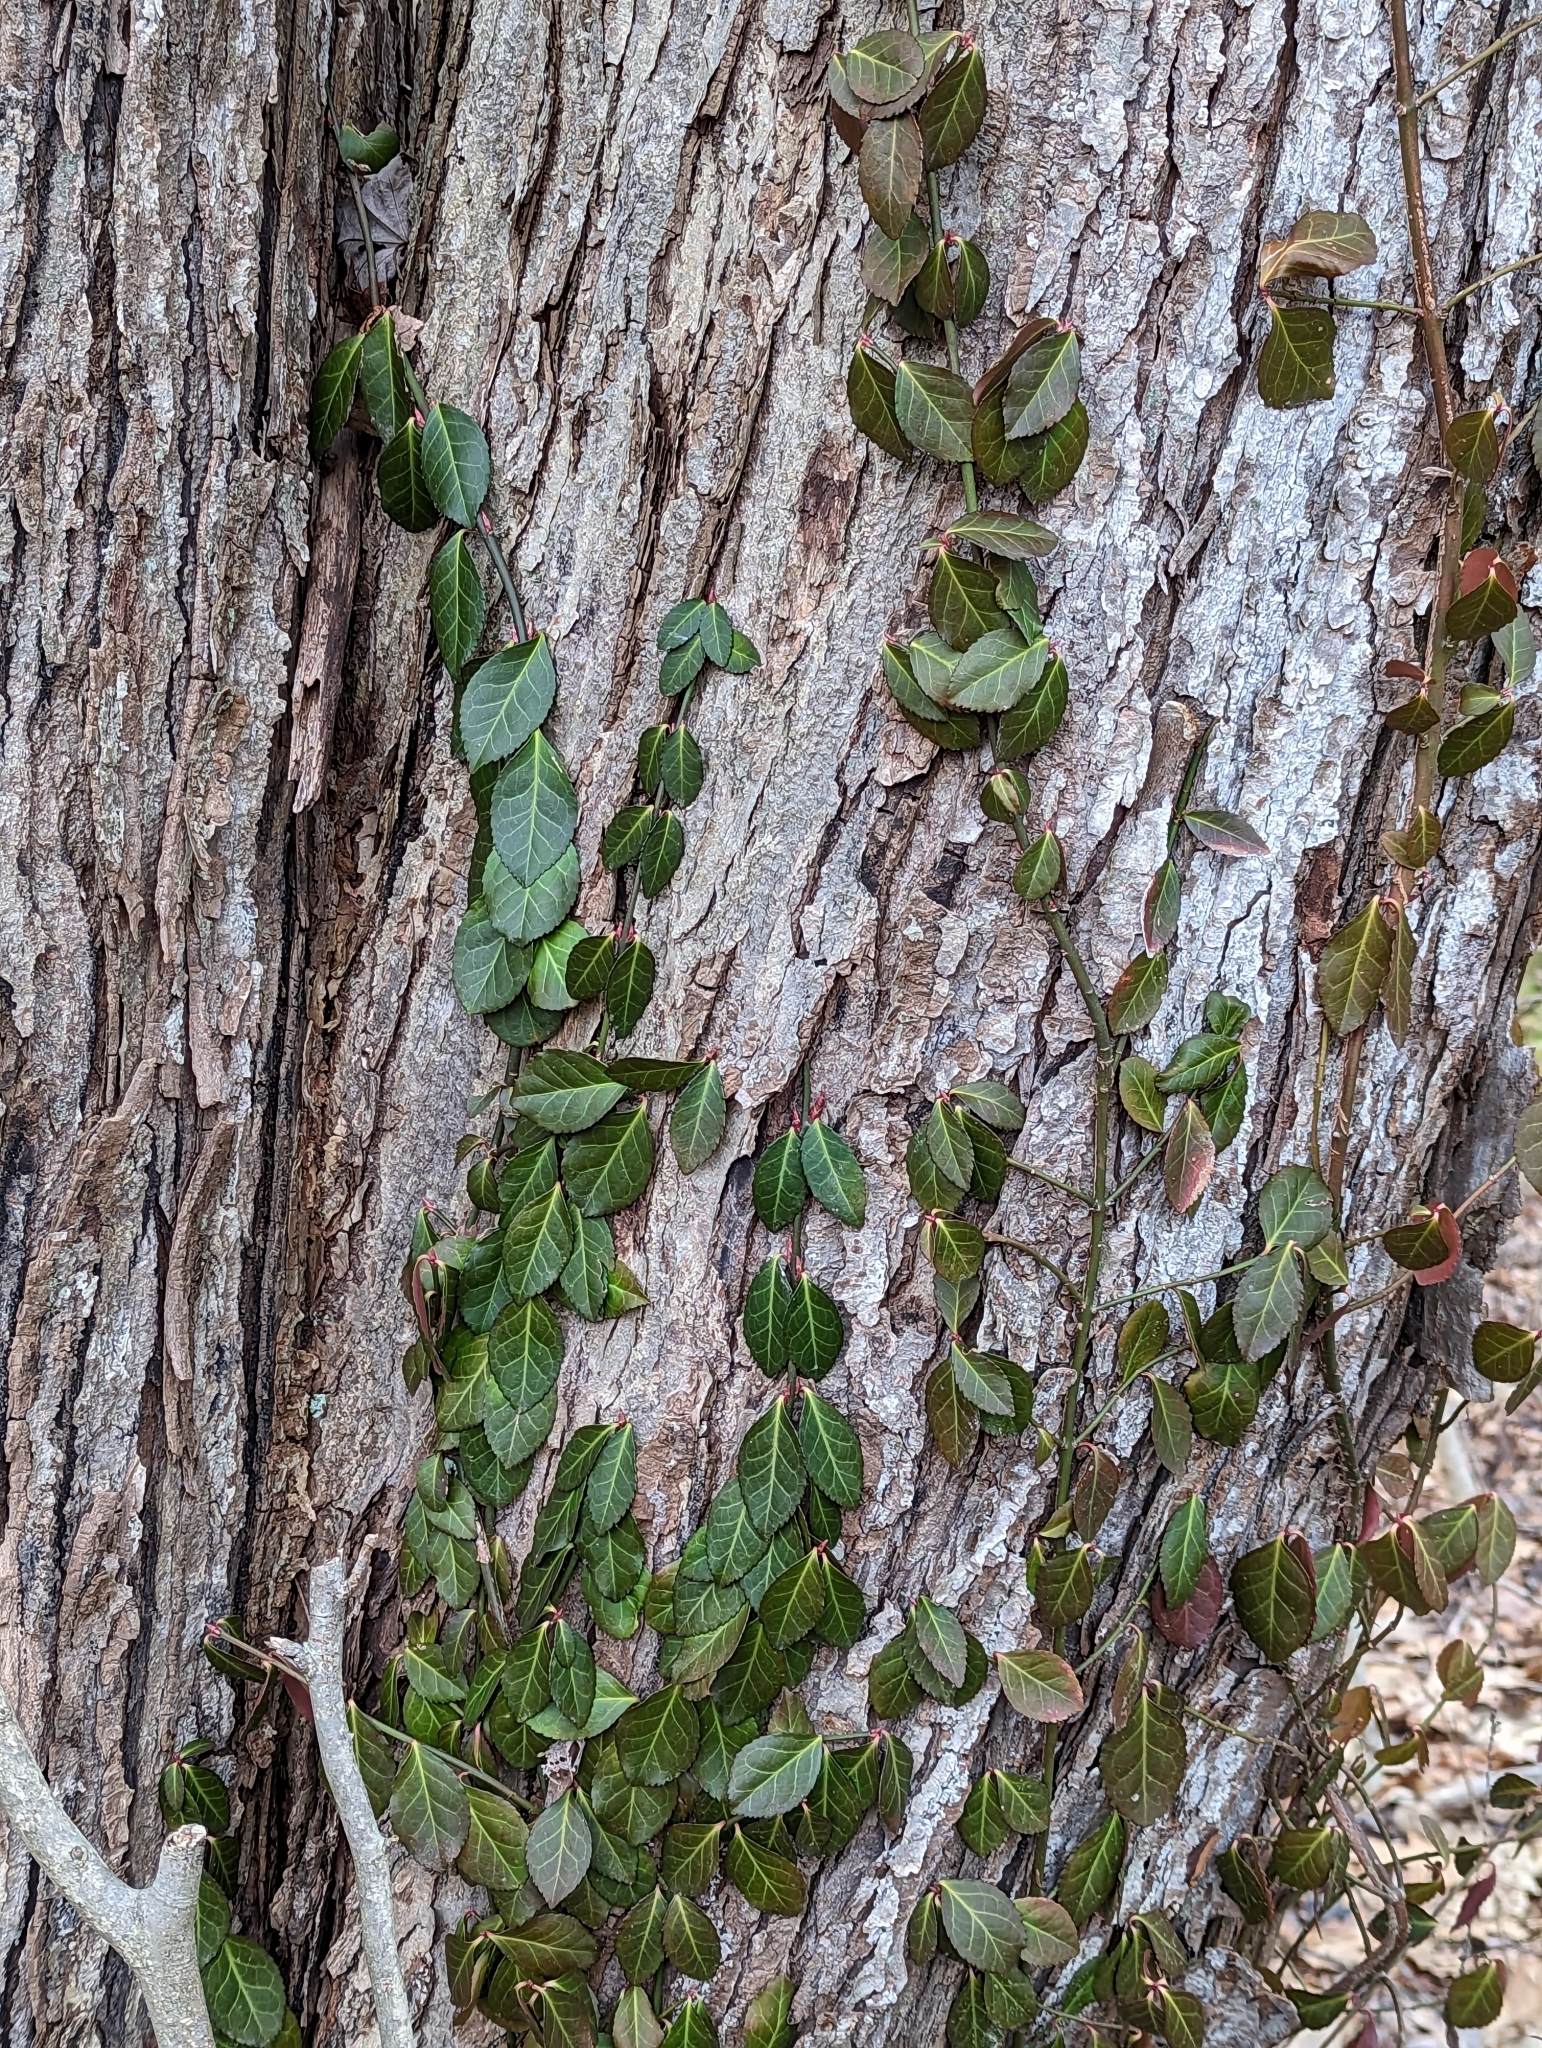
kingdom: Plantae
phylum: Tracheophyta
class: Magnoliopsida
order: Celastrales
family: Celastraceae
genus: Euonymus
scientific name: Euonymus fortunei
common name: Climbing euonymus
